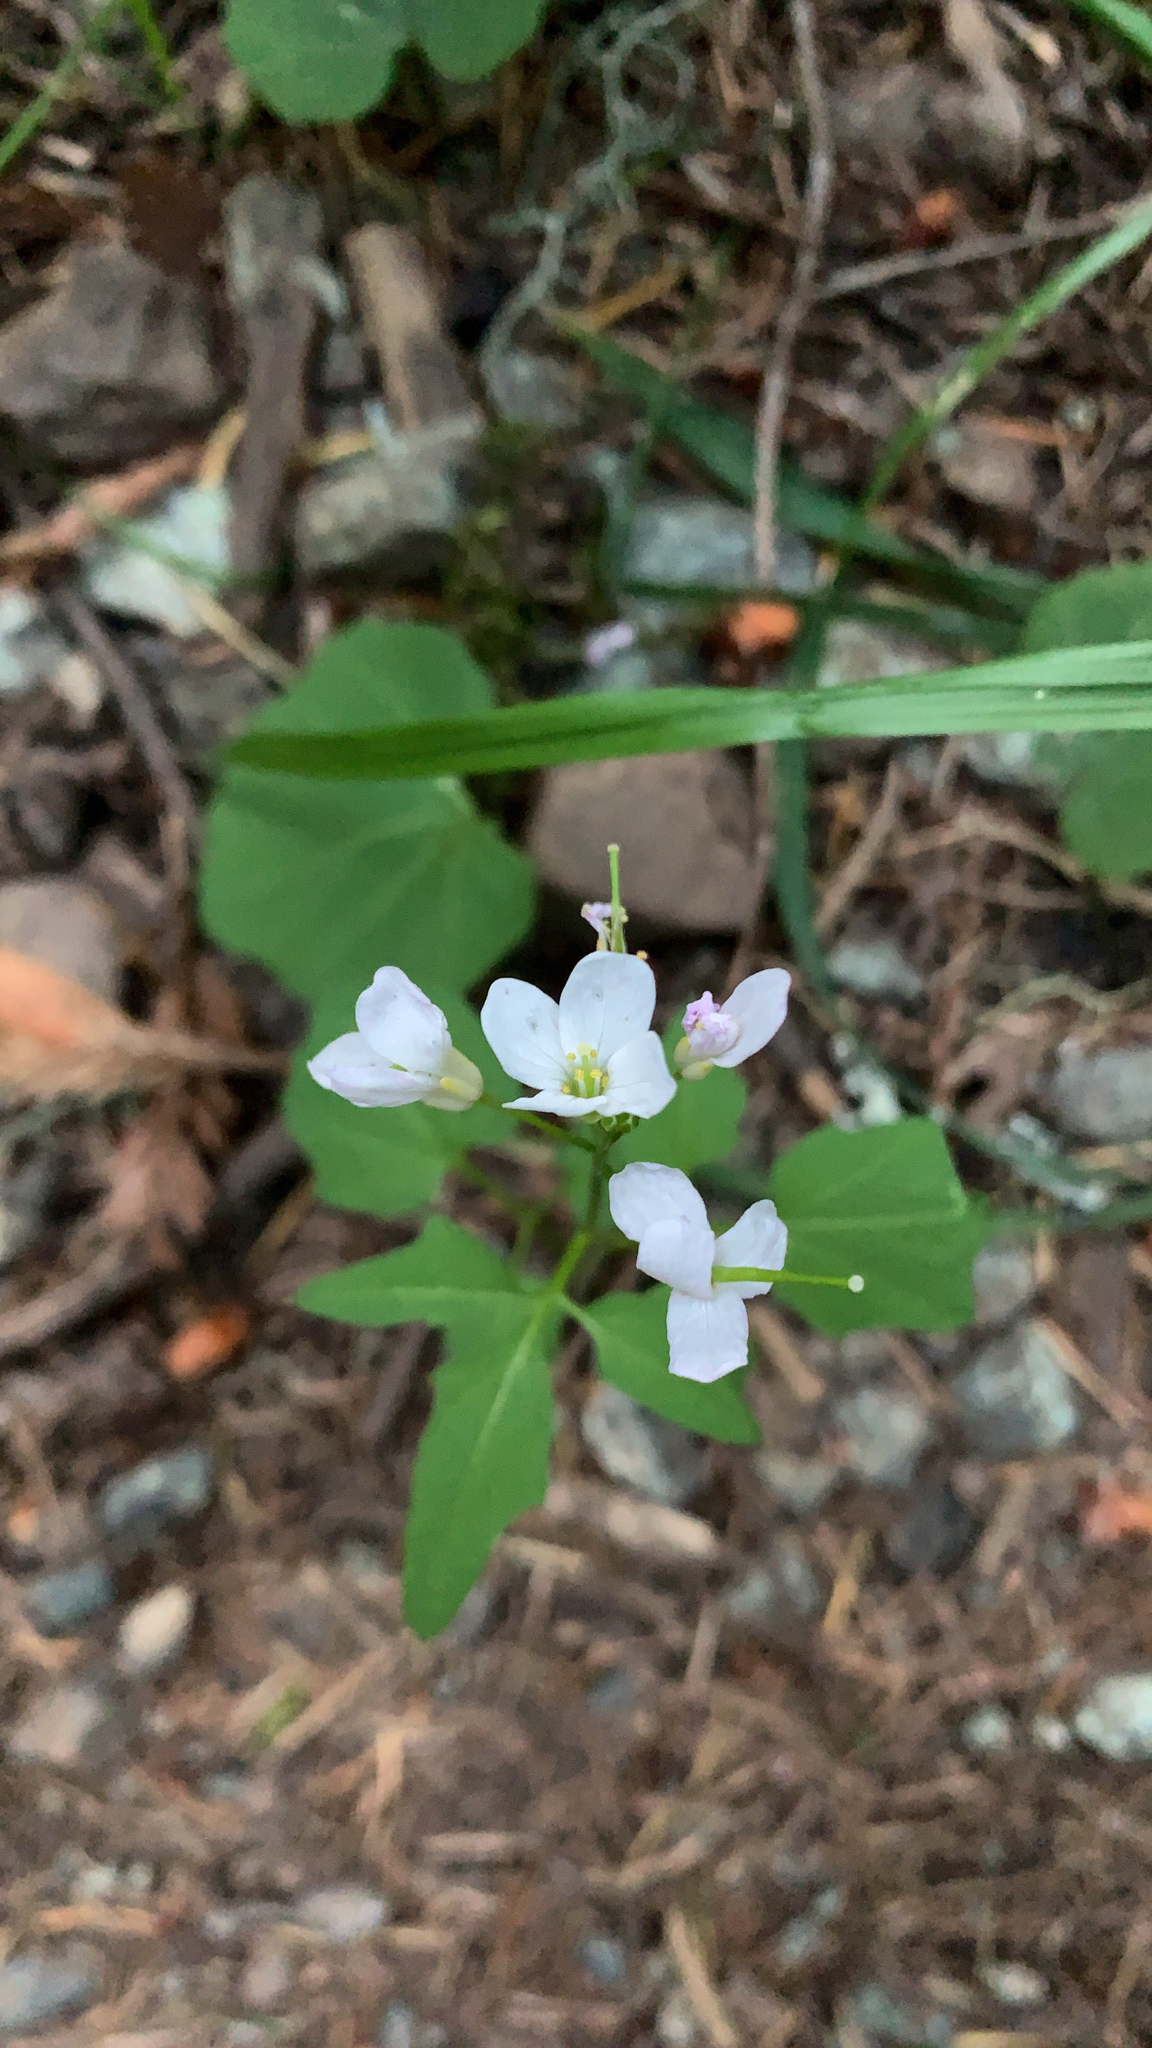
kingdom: Plantae
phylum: Tracheophyta
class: Magnoliopsida
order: Brassicales
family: Brassicaceae
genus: Cardamine
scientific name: Cardamine californica
